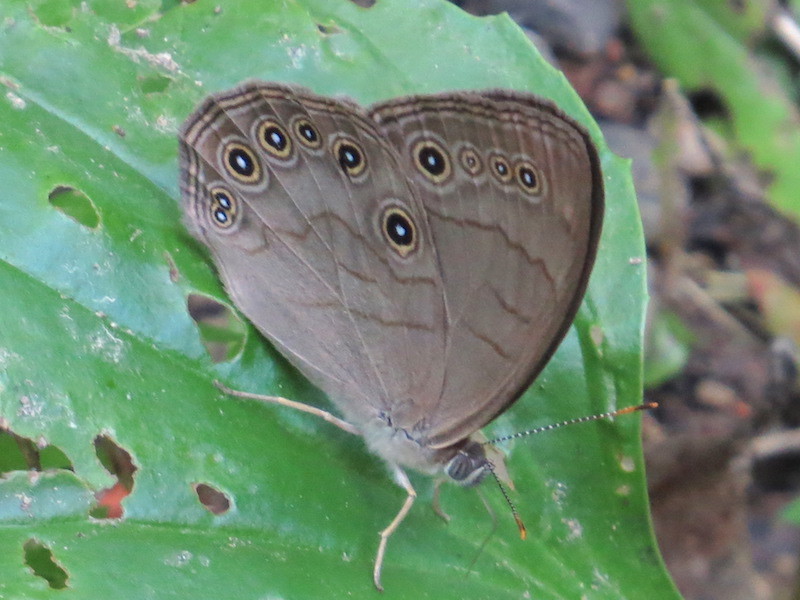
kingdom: Animalia
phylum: Arthropoda
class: Insecta
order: Lepidoptera
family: Nymphalidae
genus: Lethe
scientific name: Lethe eurydice
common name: Eyed brown
